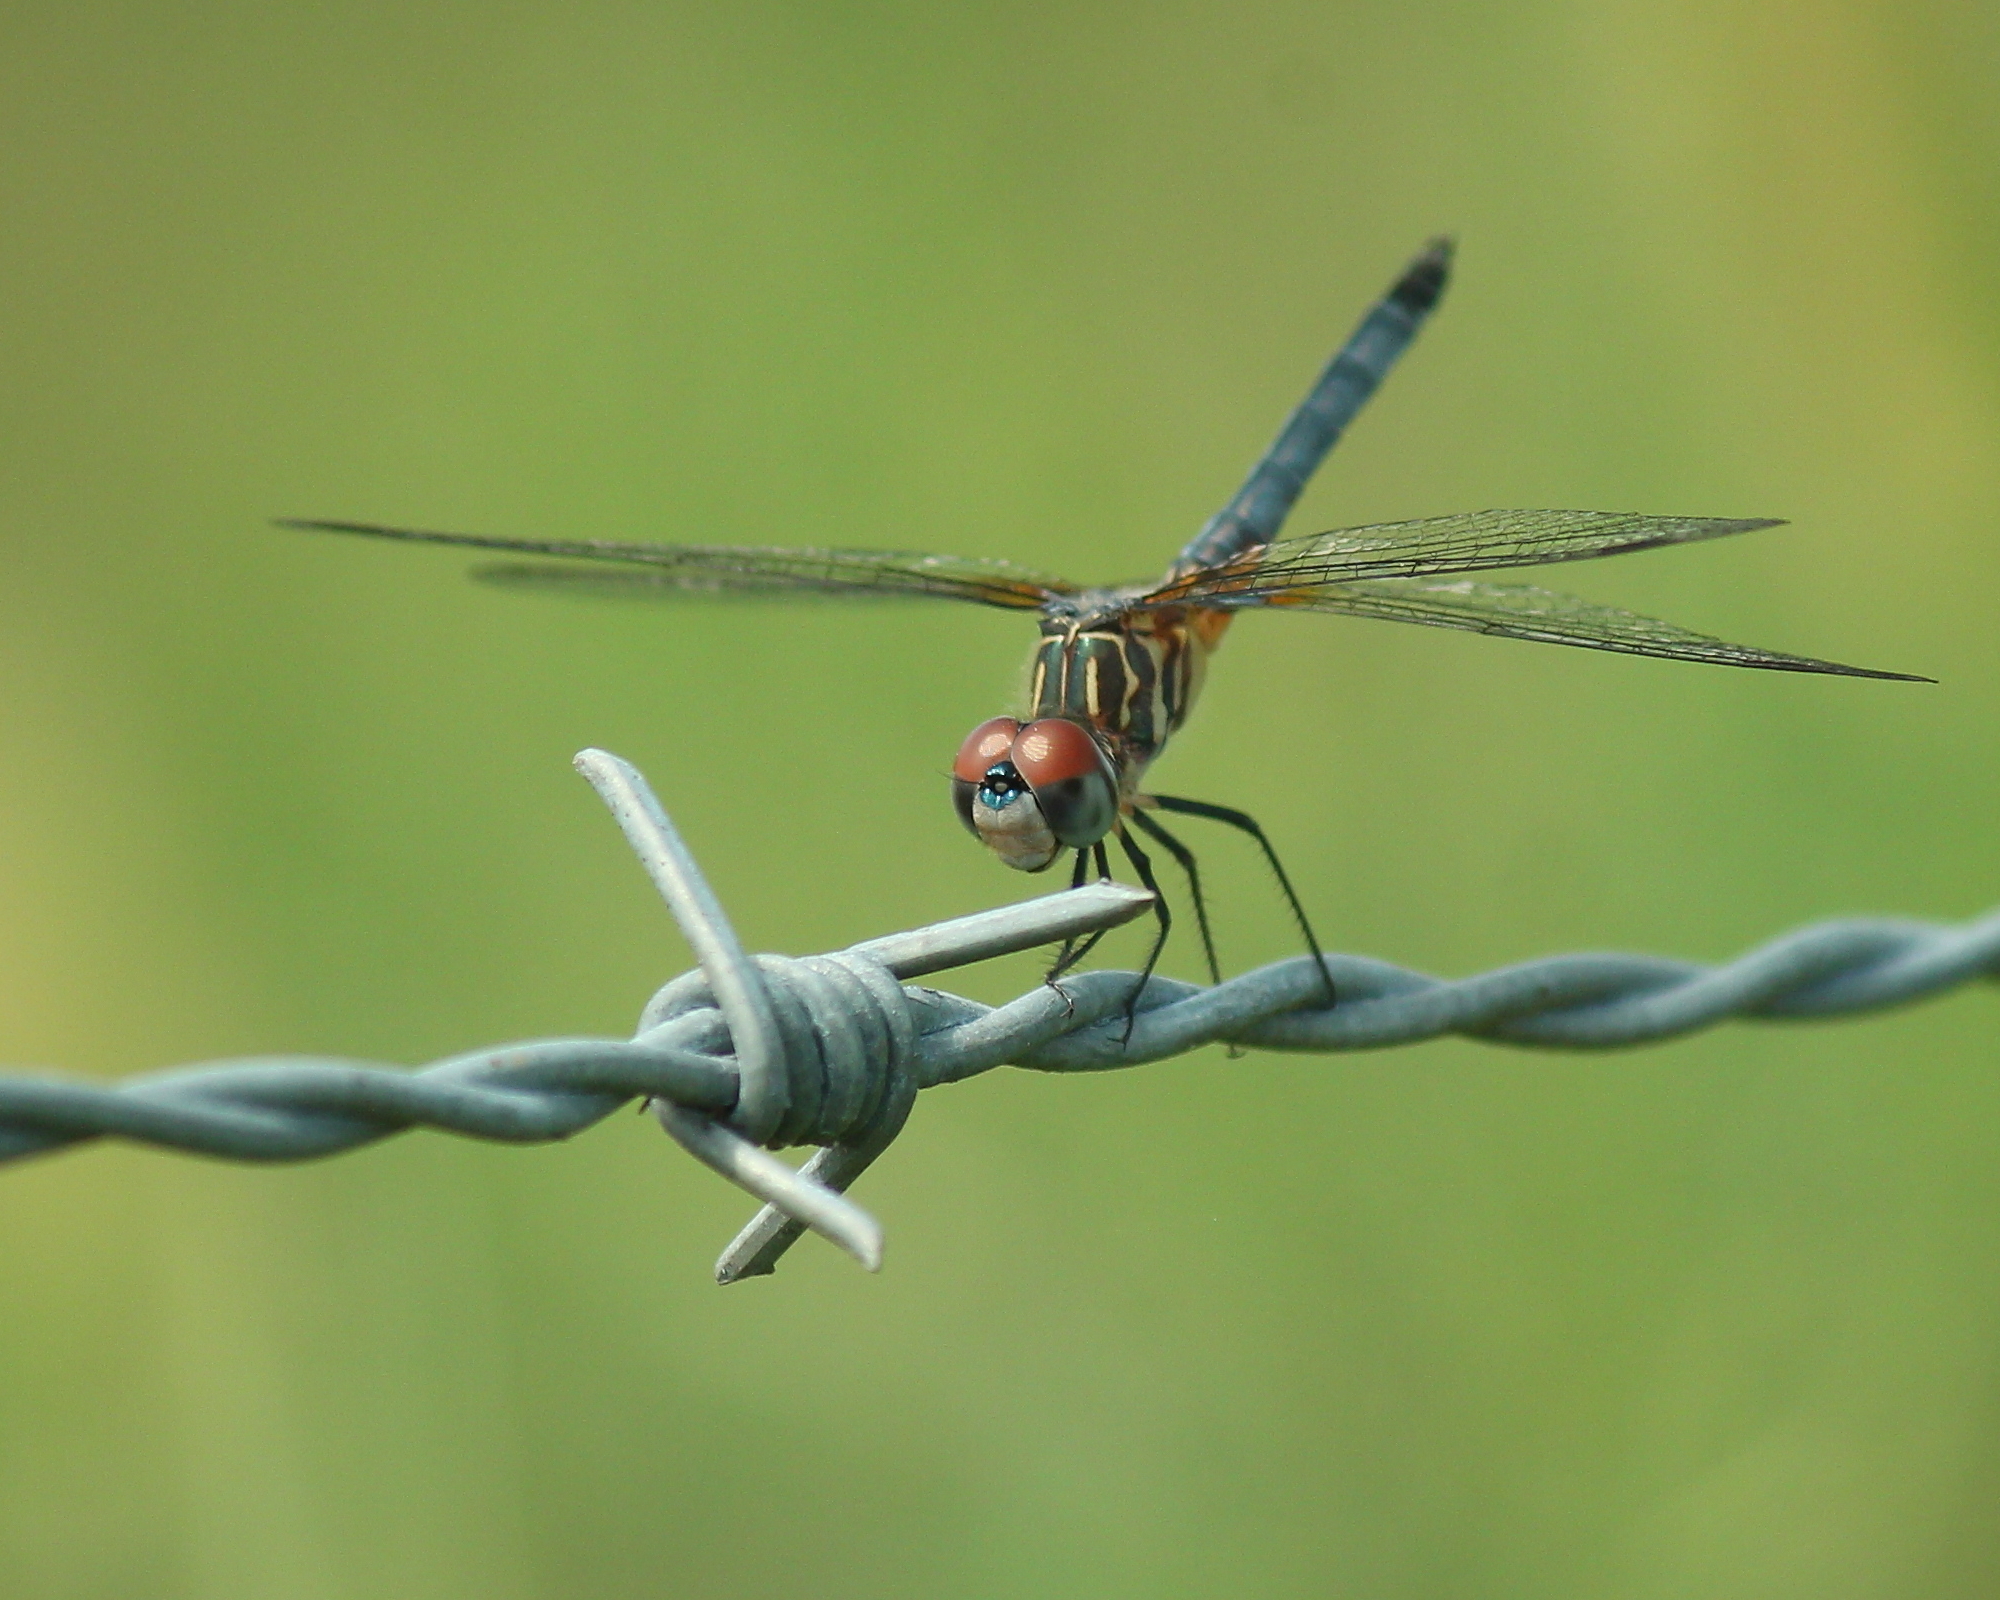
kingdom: Animalia
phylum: Arthropoda
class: Insecta
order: Odonata
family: Libellulidae
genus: Pachydiplax
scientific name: Pachydiplax longipennis
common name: Blue dasher
